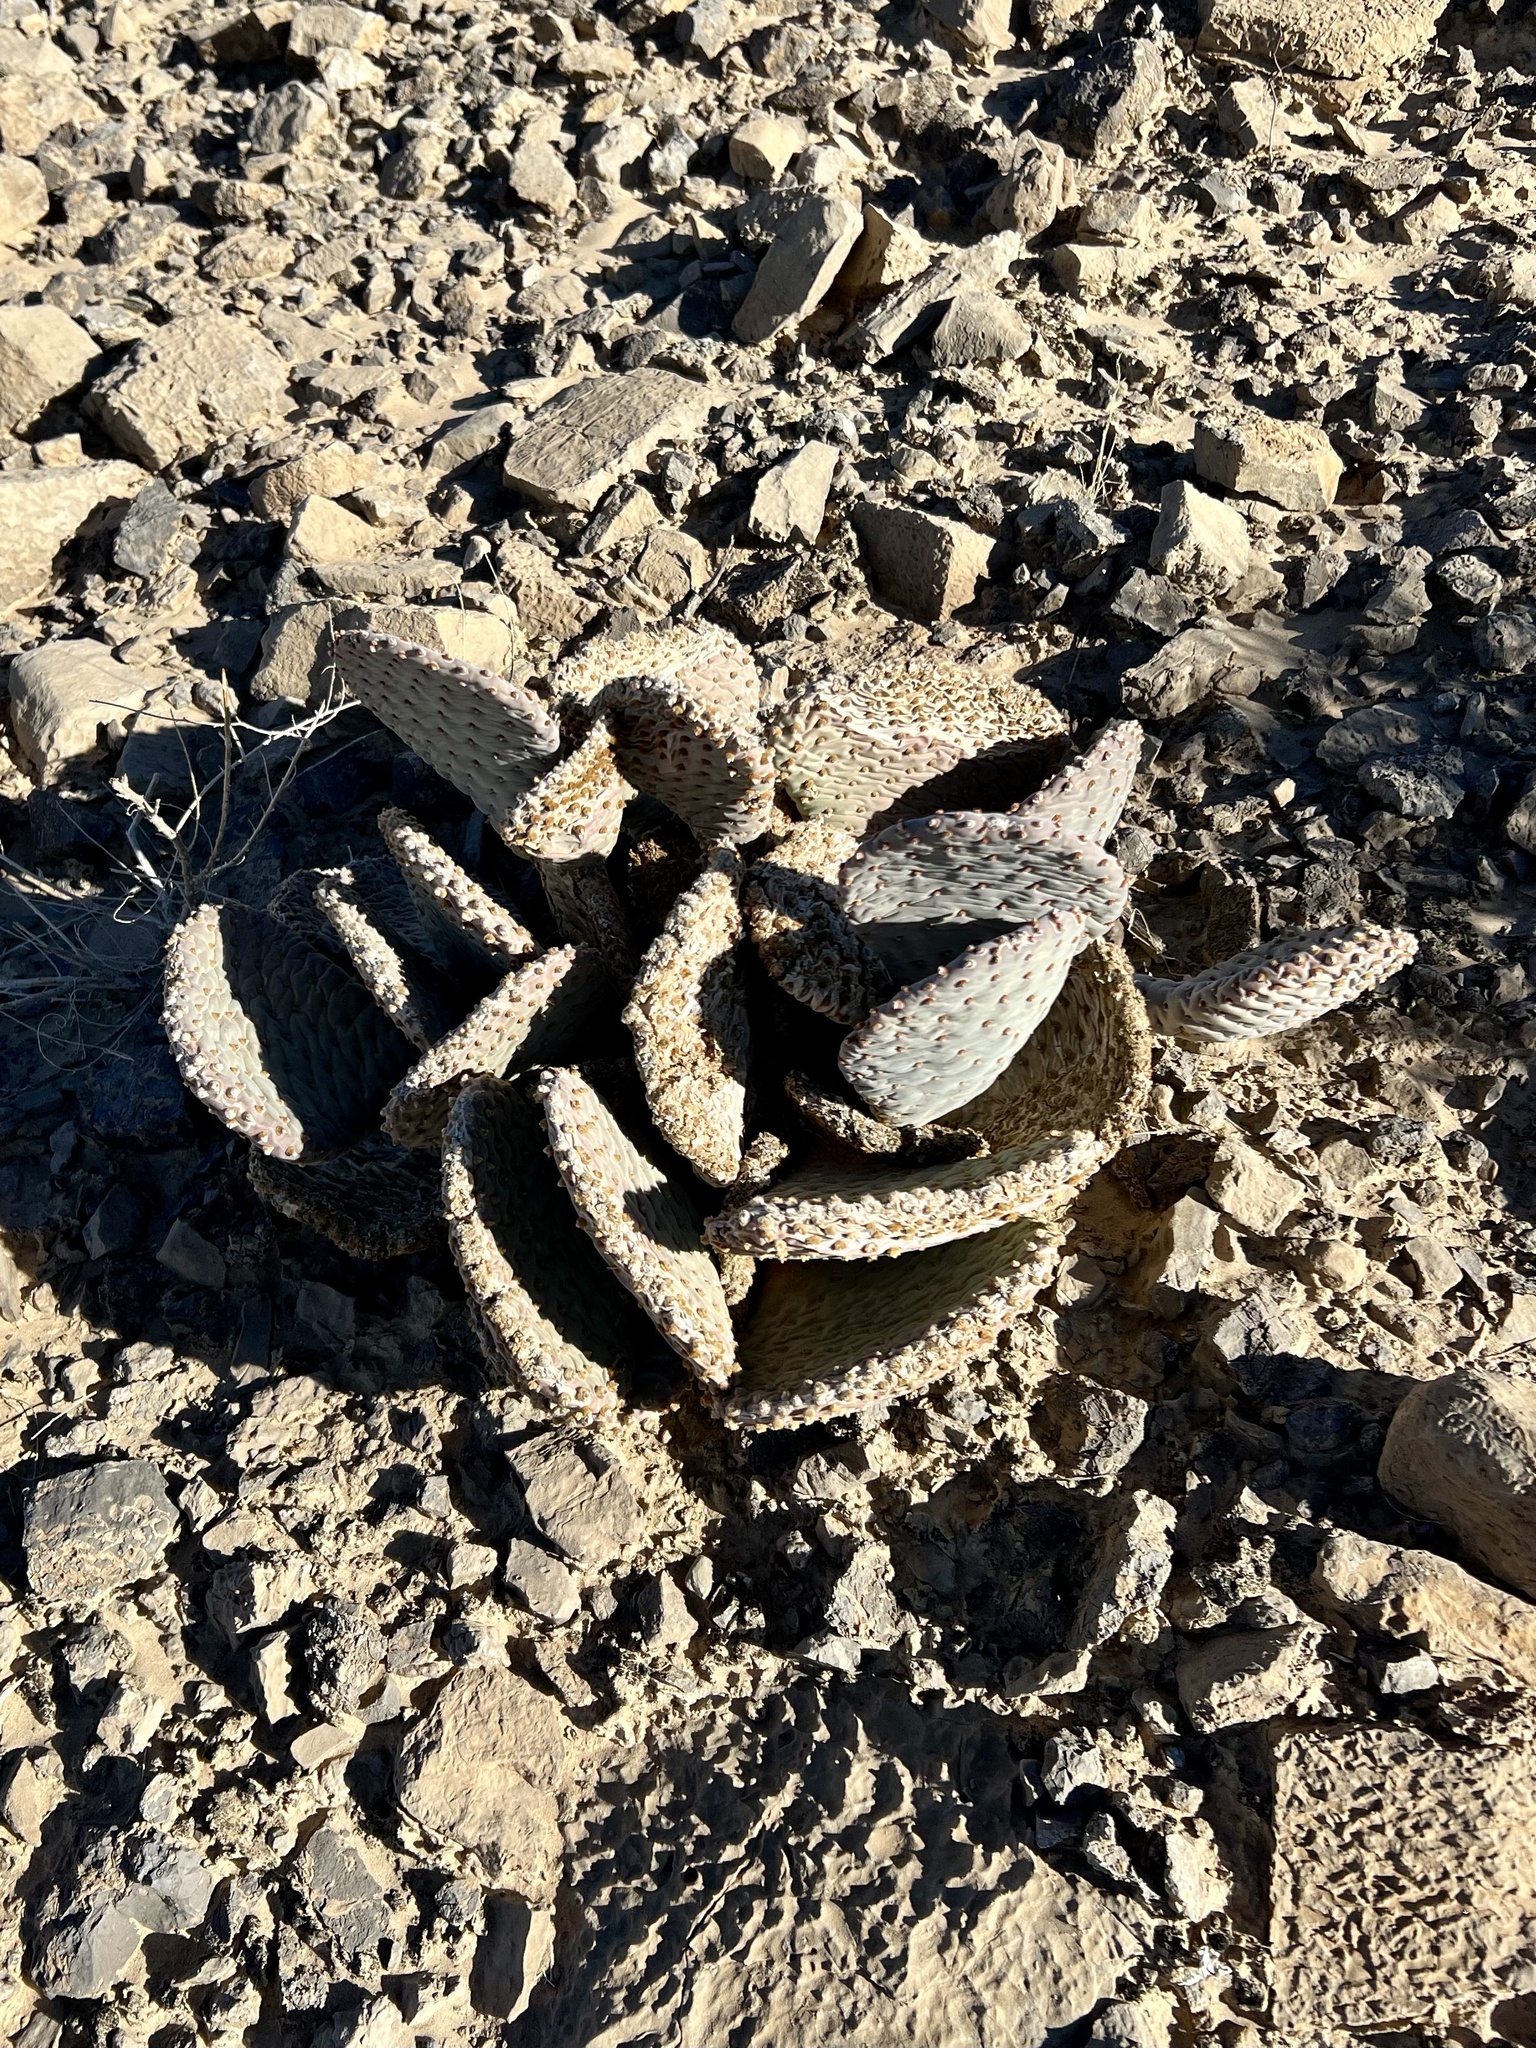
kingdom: Plantae
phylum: Tracheophyta
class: Magnoliopsida
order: Caryophyllales
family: Cactaceae
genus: Opuntia
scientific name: Opuntia basilaris
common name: Beavertail prickly-pear
